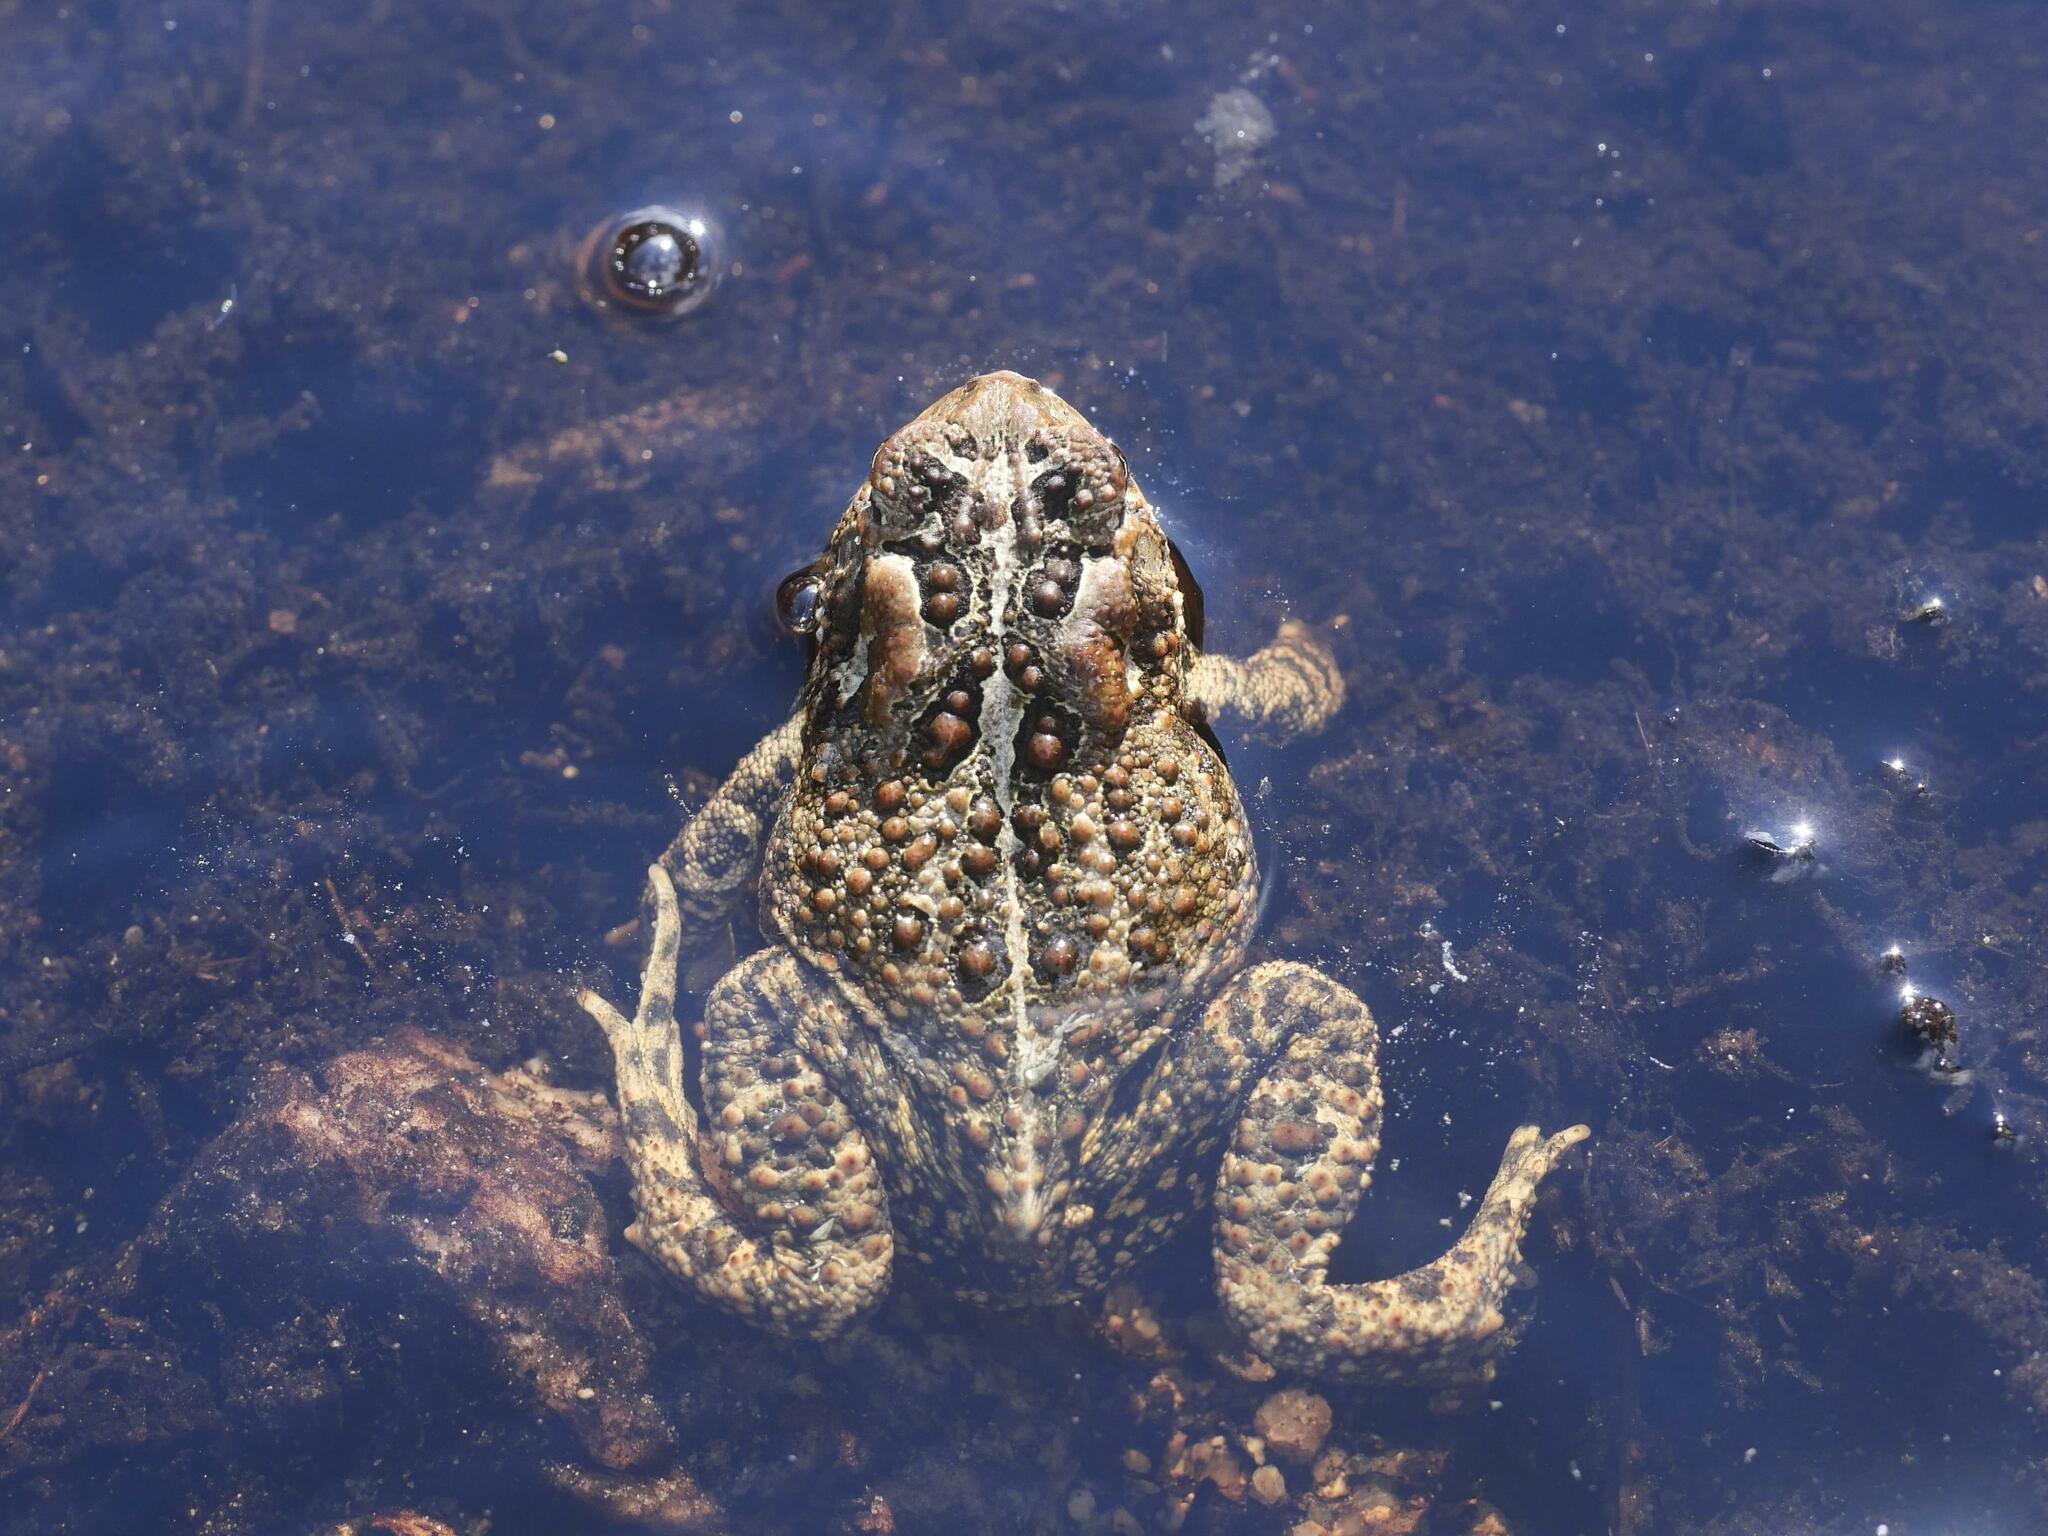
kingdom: Animalia
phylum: Chordata
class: Amphibia
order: Anura
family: Bufonidae
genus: Anaxyrus
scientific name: Anaxyrus americanus
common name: American toad
